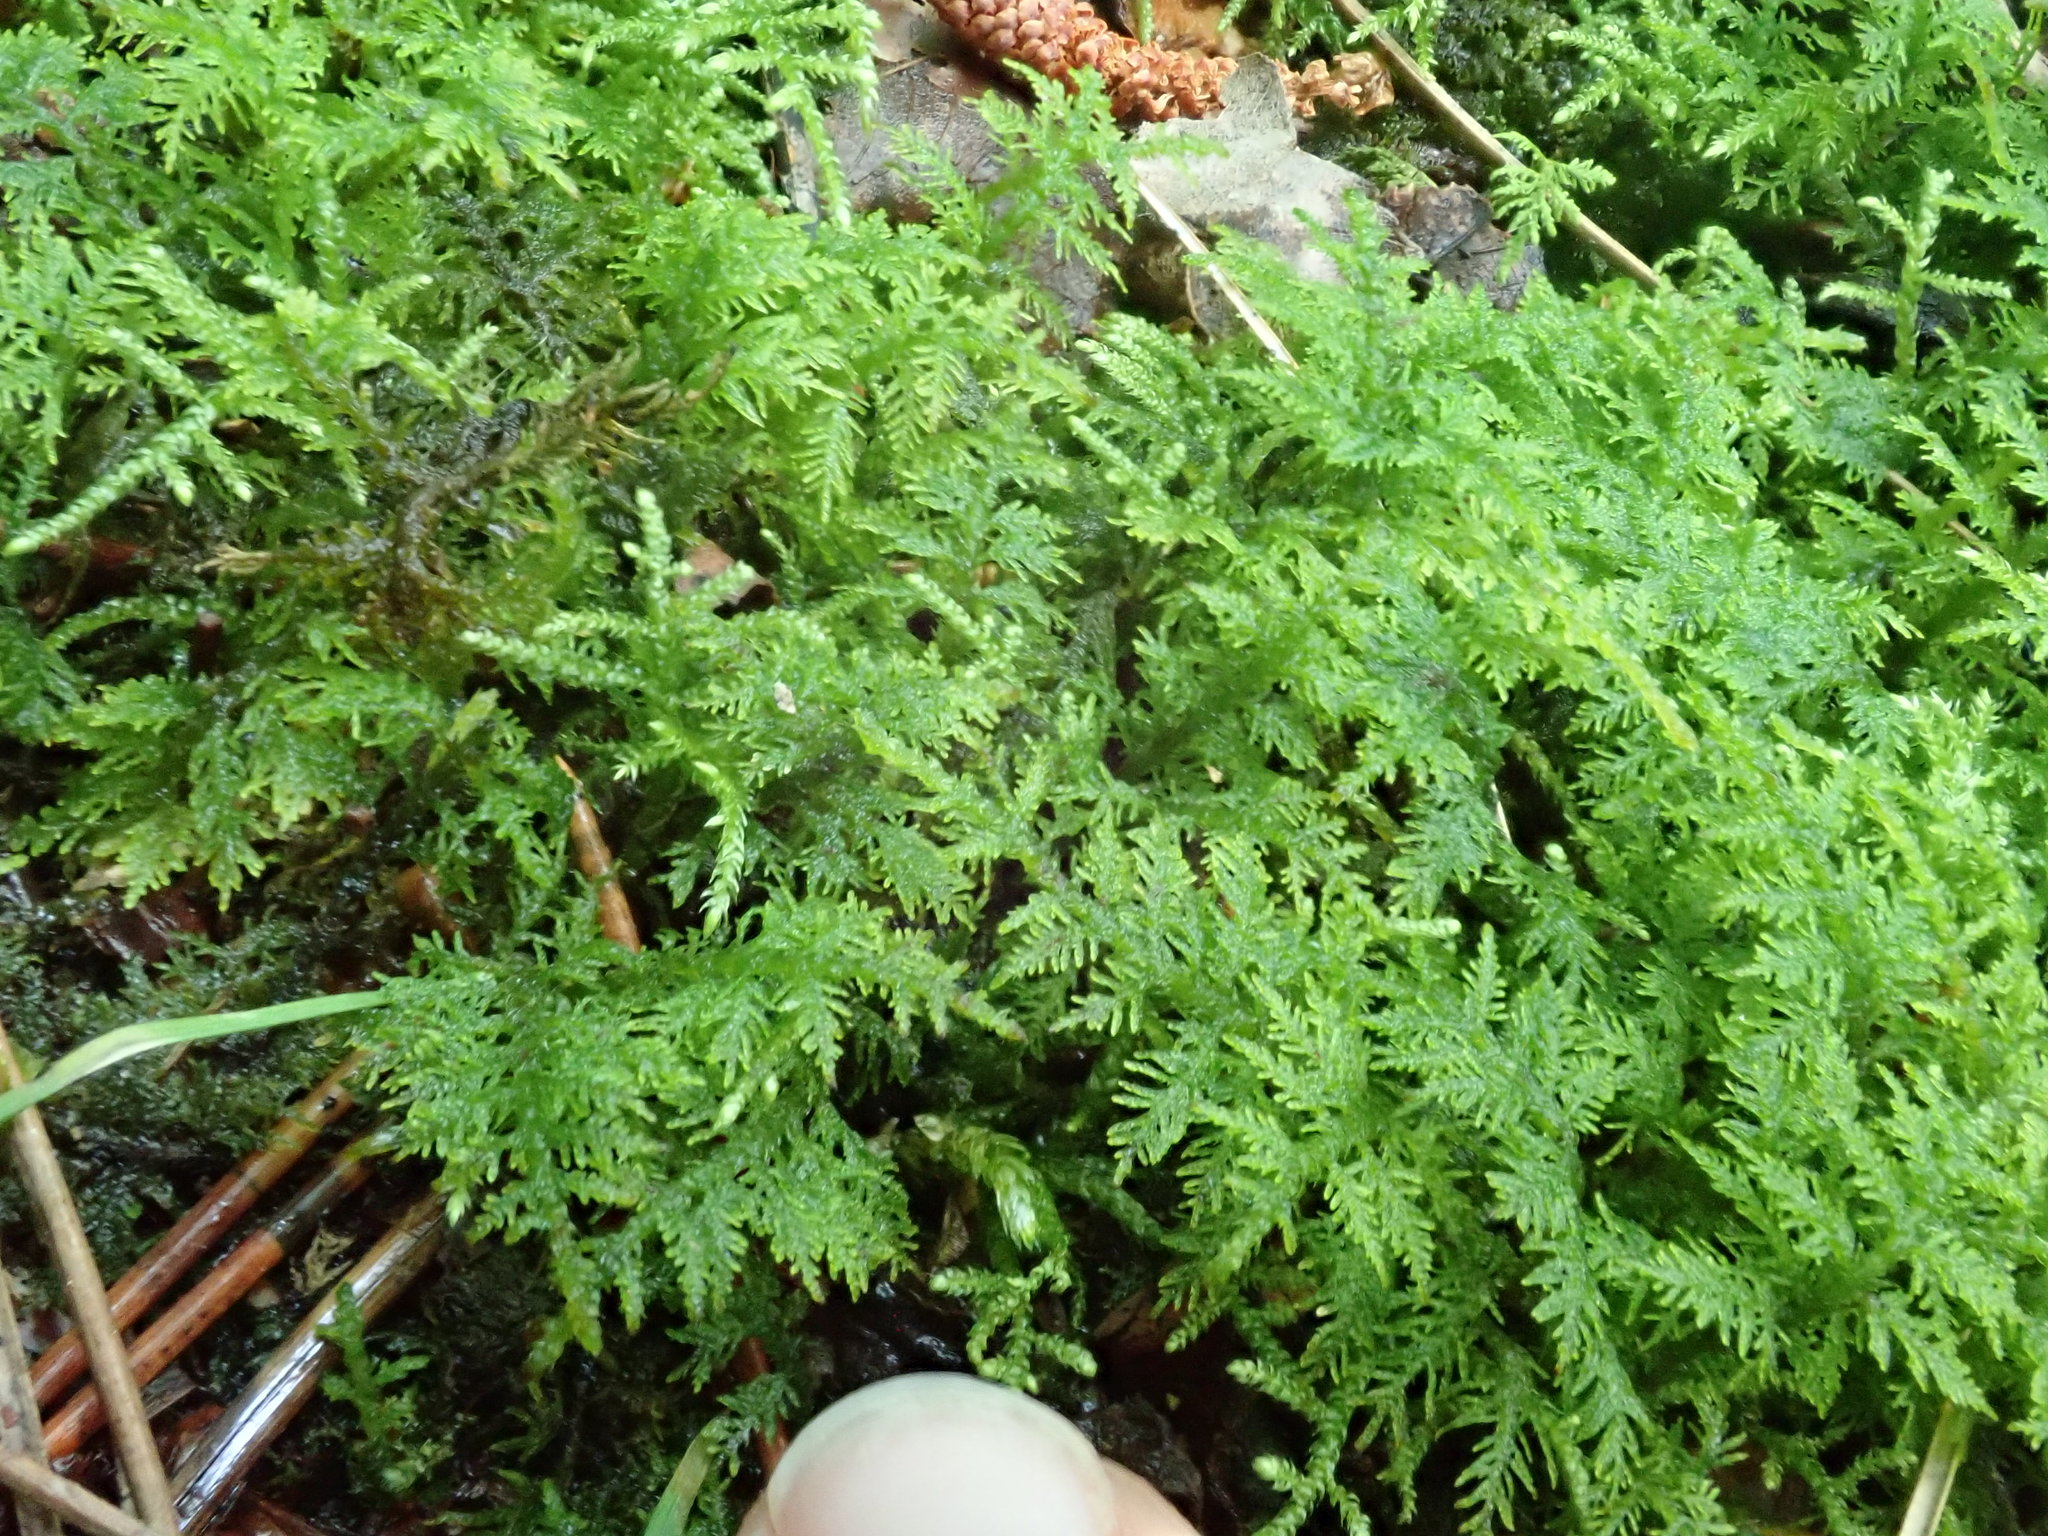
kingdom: Plantae
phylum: Bryophyta
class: Bryopsida
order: Hypnales
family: Thuidiaceae
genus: Thuidium
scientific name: Thuidium delicatulum
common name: Delicate fern moss
